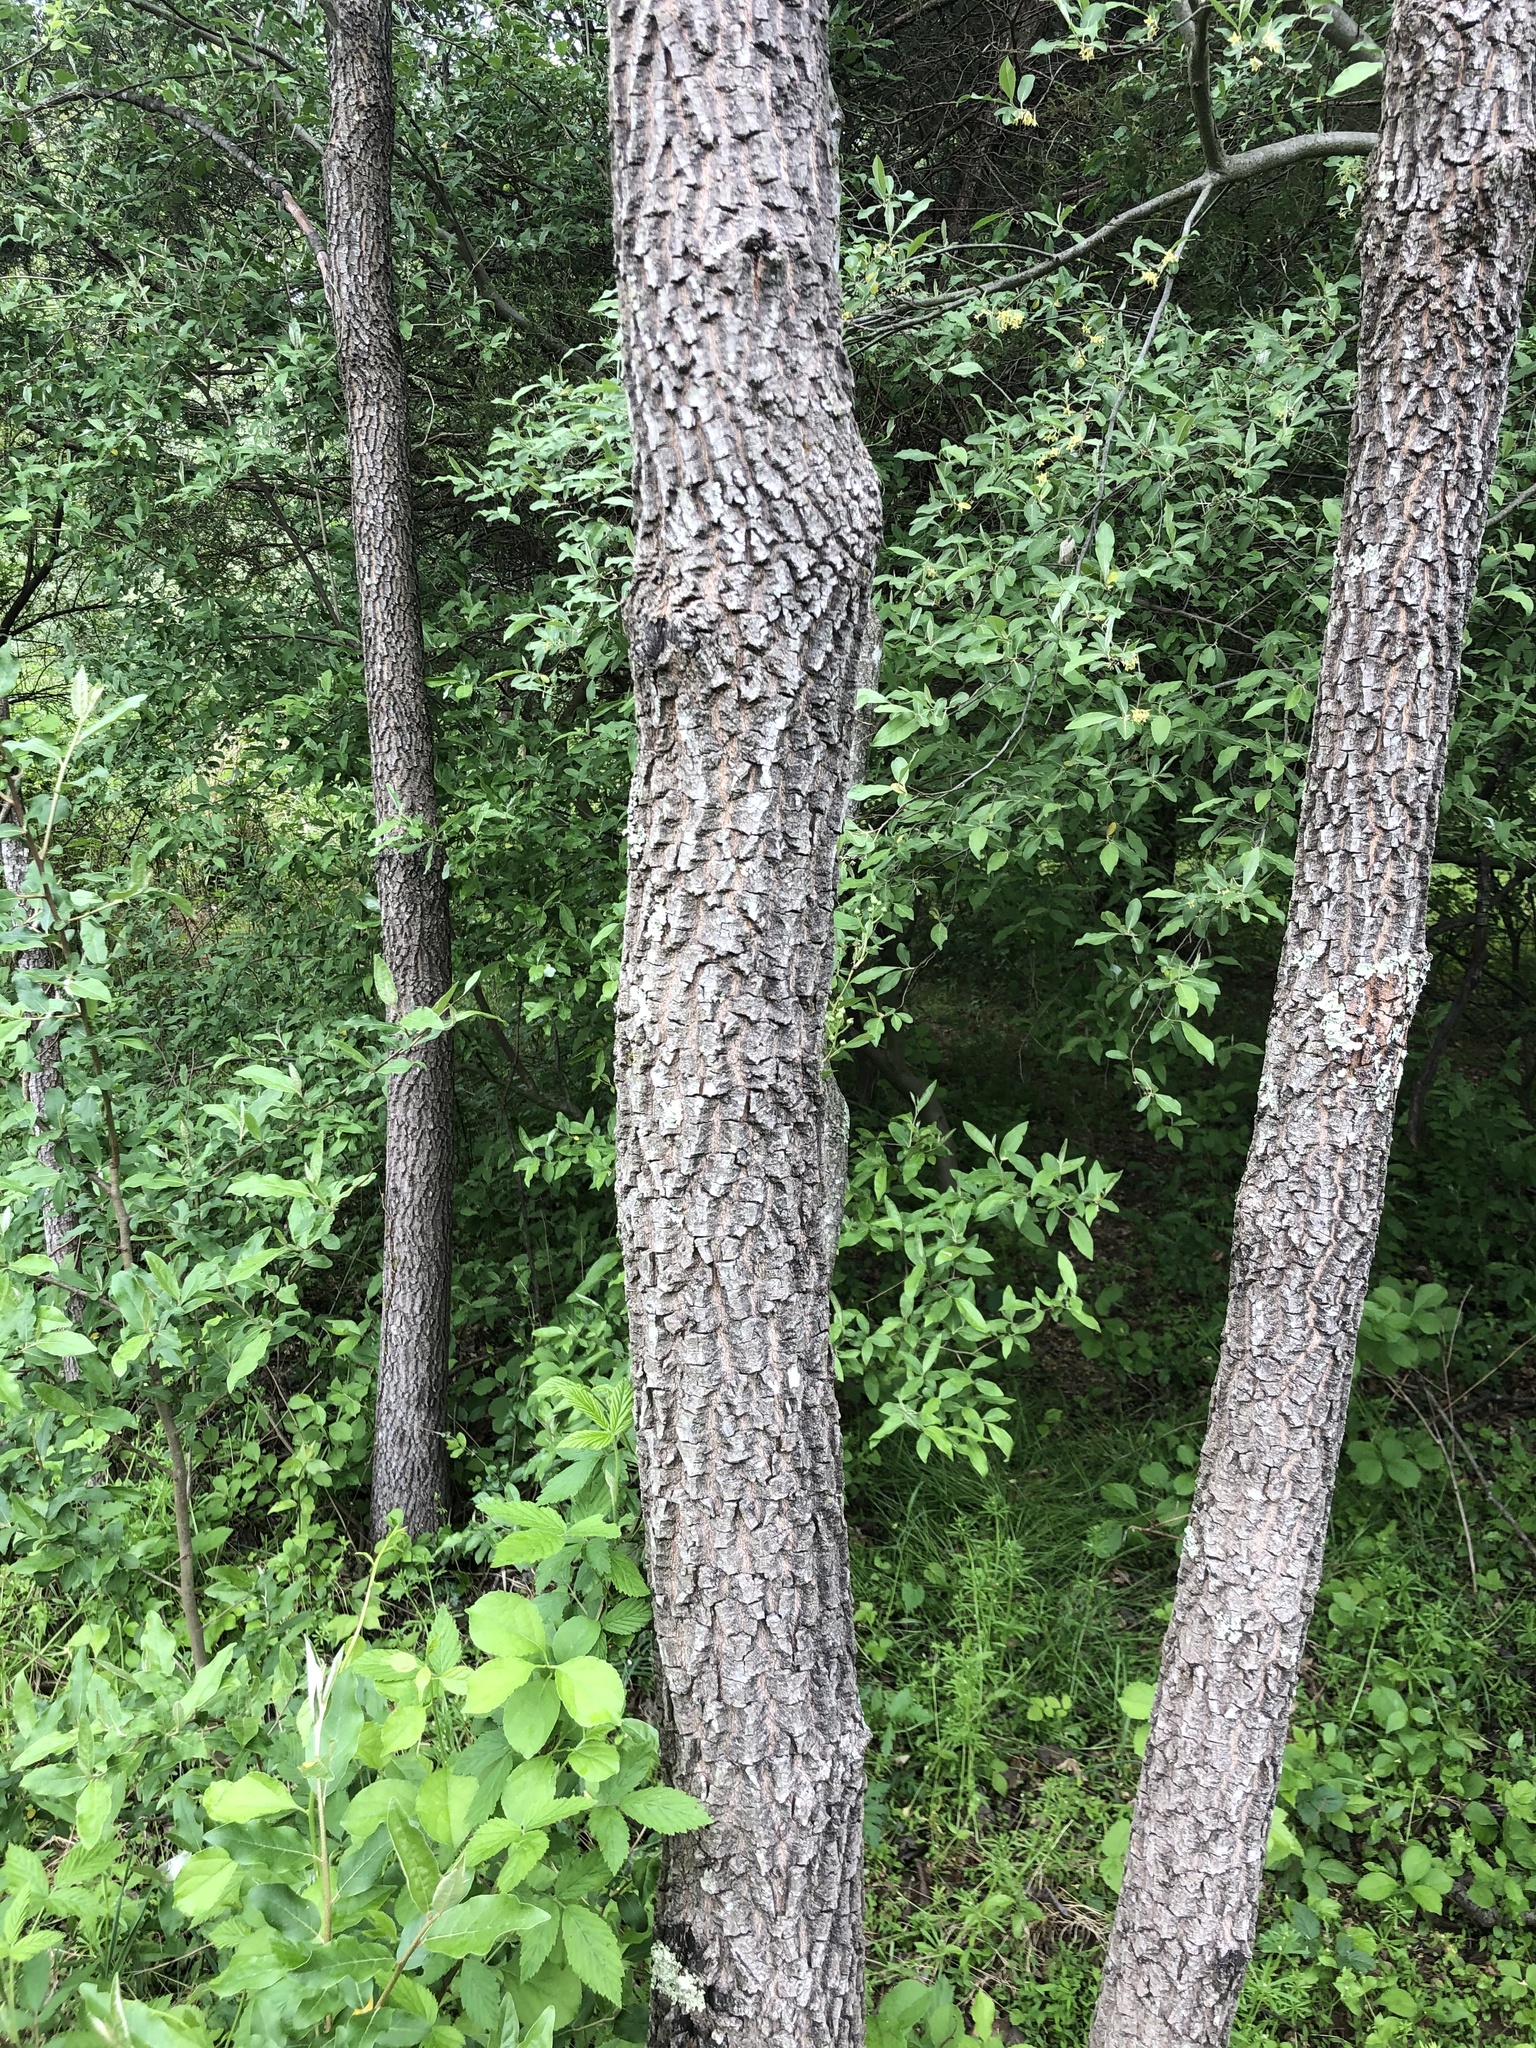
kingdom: Plantae
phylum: Tracheophyta
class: Magnoliopsida
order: Ericales
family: Ebenaceae
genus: Diospyros
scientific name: Diospyros virginiana
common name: Persimmon
